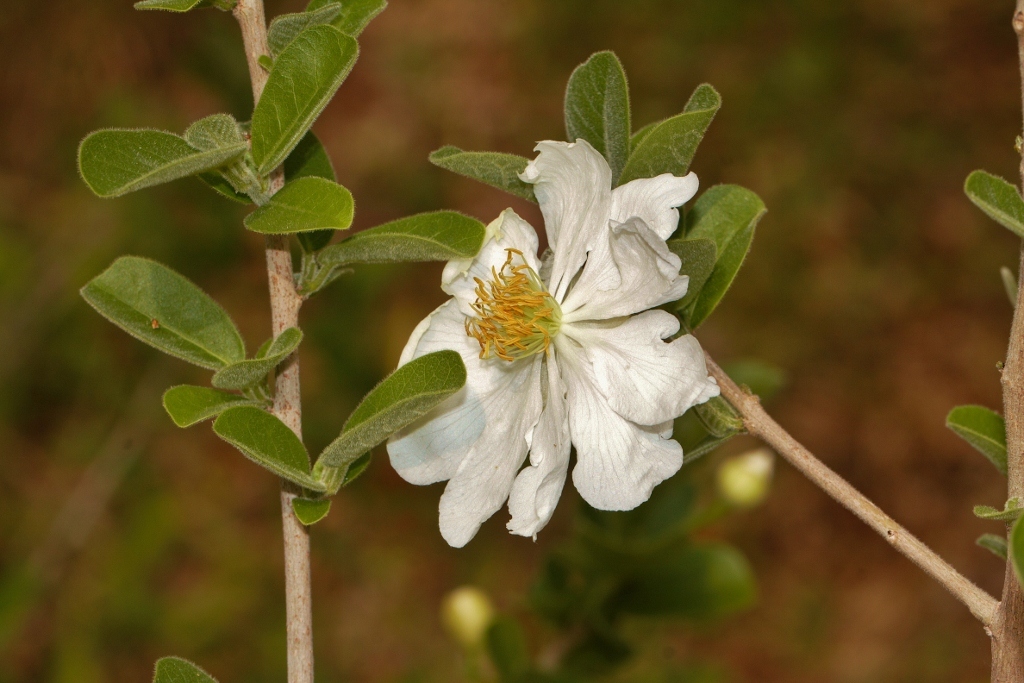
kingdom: Plantae
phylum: Tracheophyta
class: Magnoliopsida
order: Malpighiales
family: Achariaceae
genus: Xylotheca
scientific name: Xylotheca tettensis
